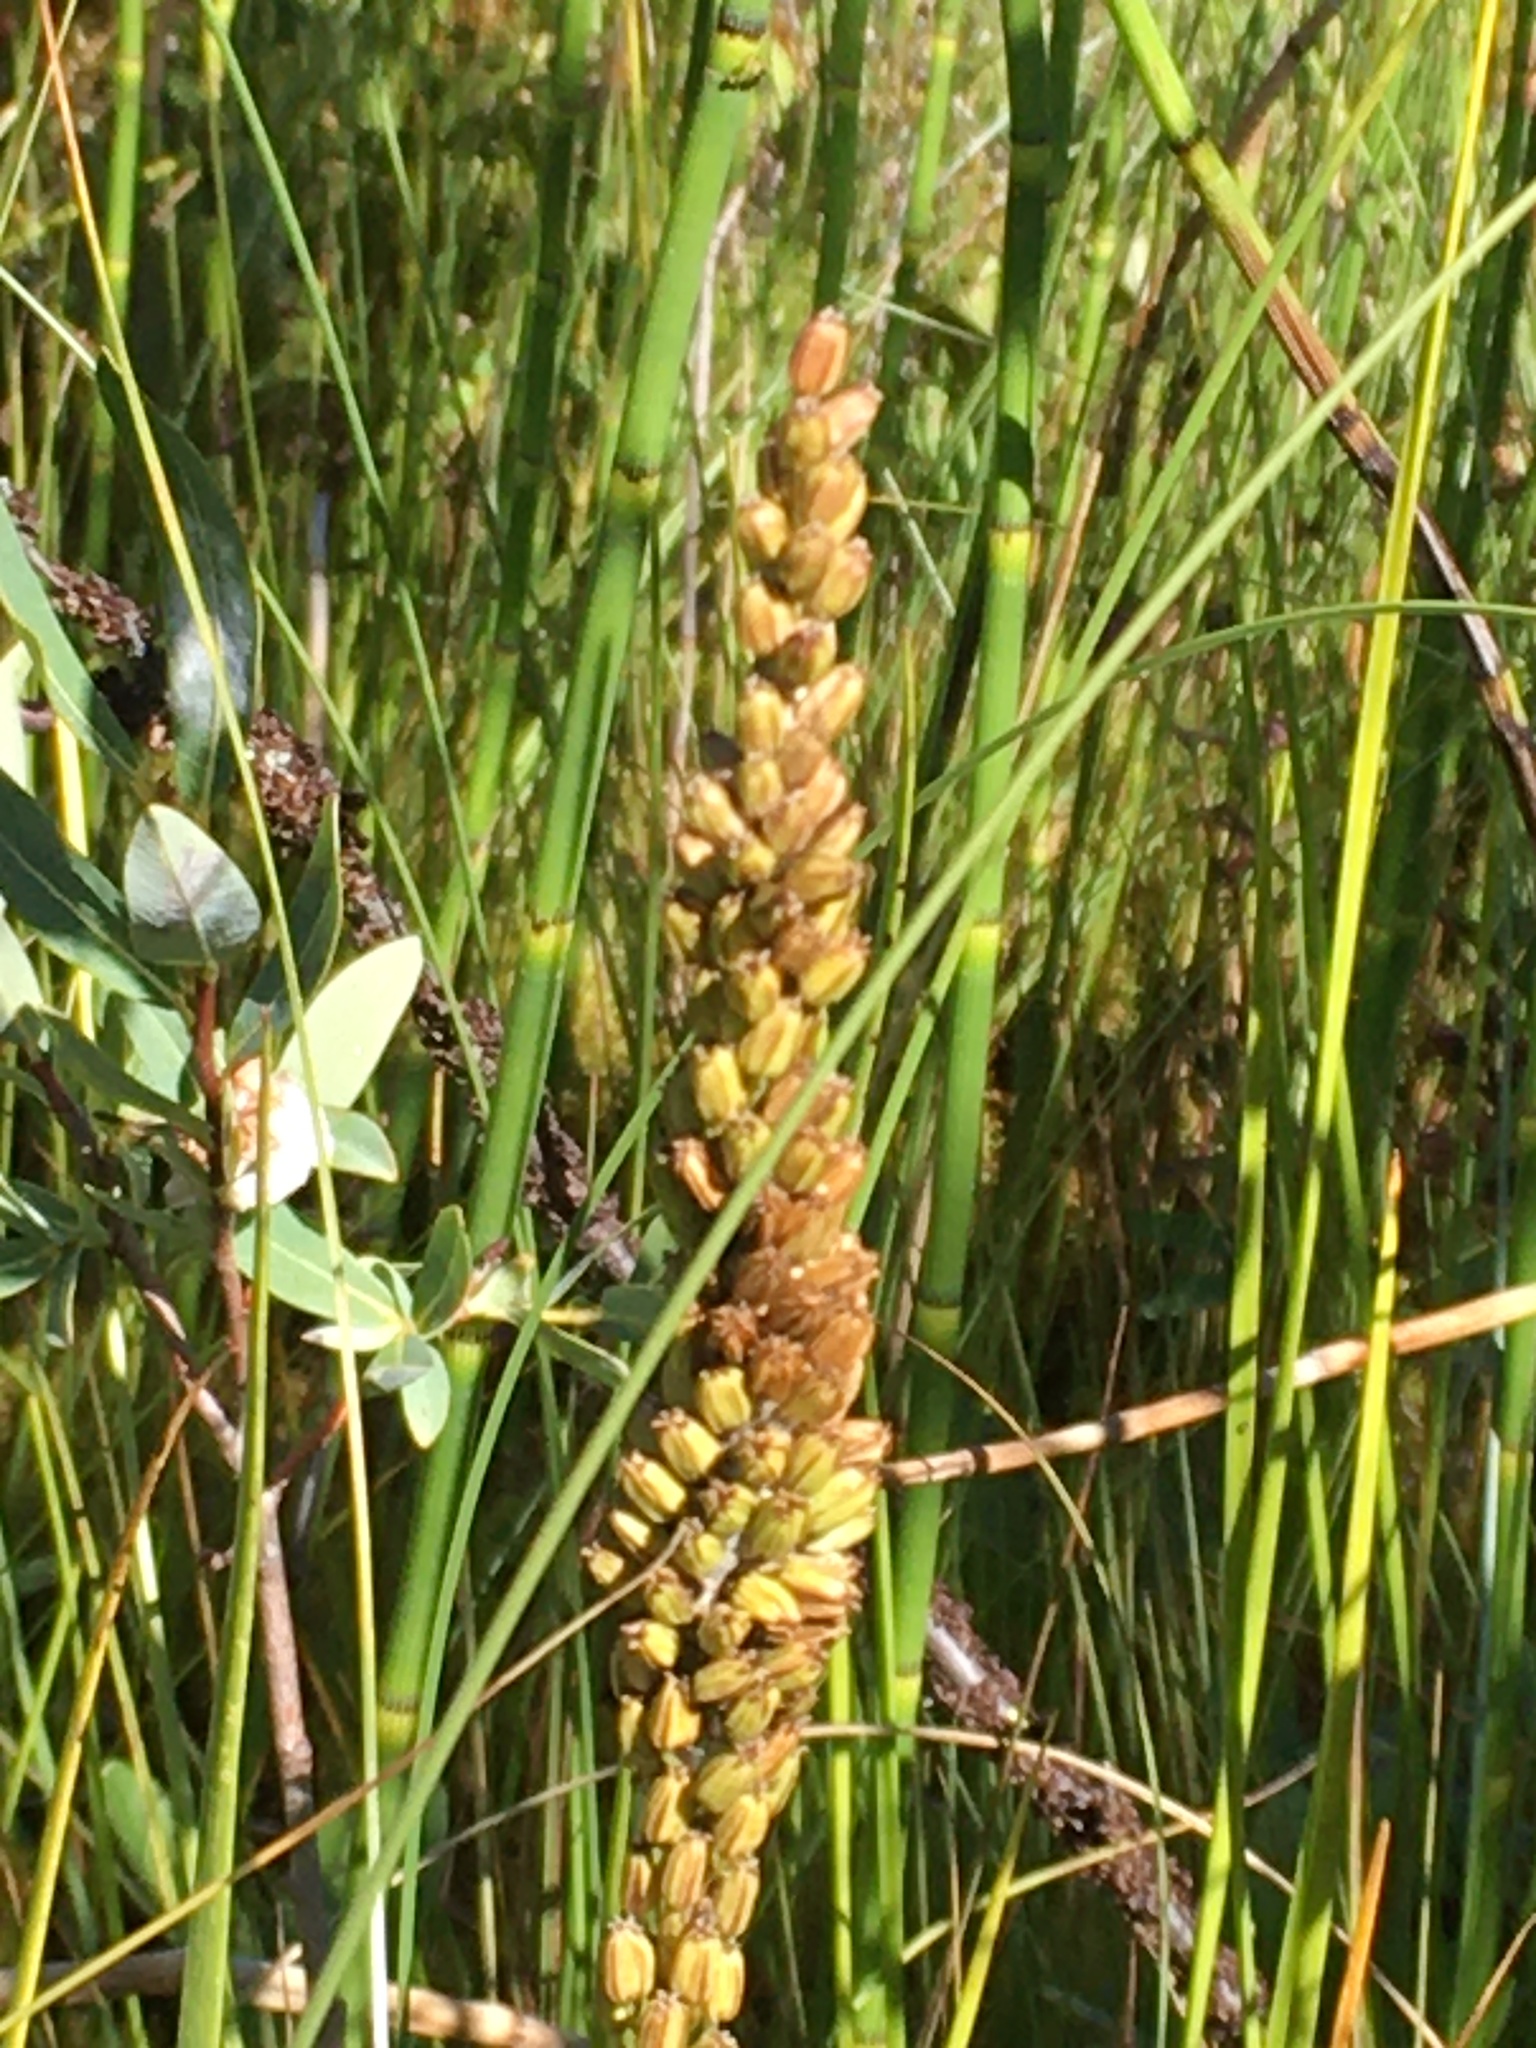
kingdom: Plantae
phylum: Tracheophyta
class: Liliopsida
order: Alismatales
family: Juncaginaceae
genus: Triglochin
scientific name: Triglochin maritima
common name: Sea arrowgrass
